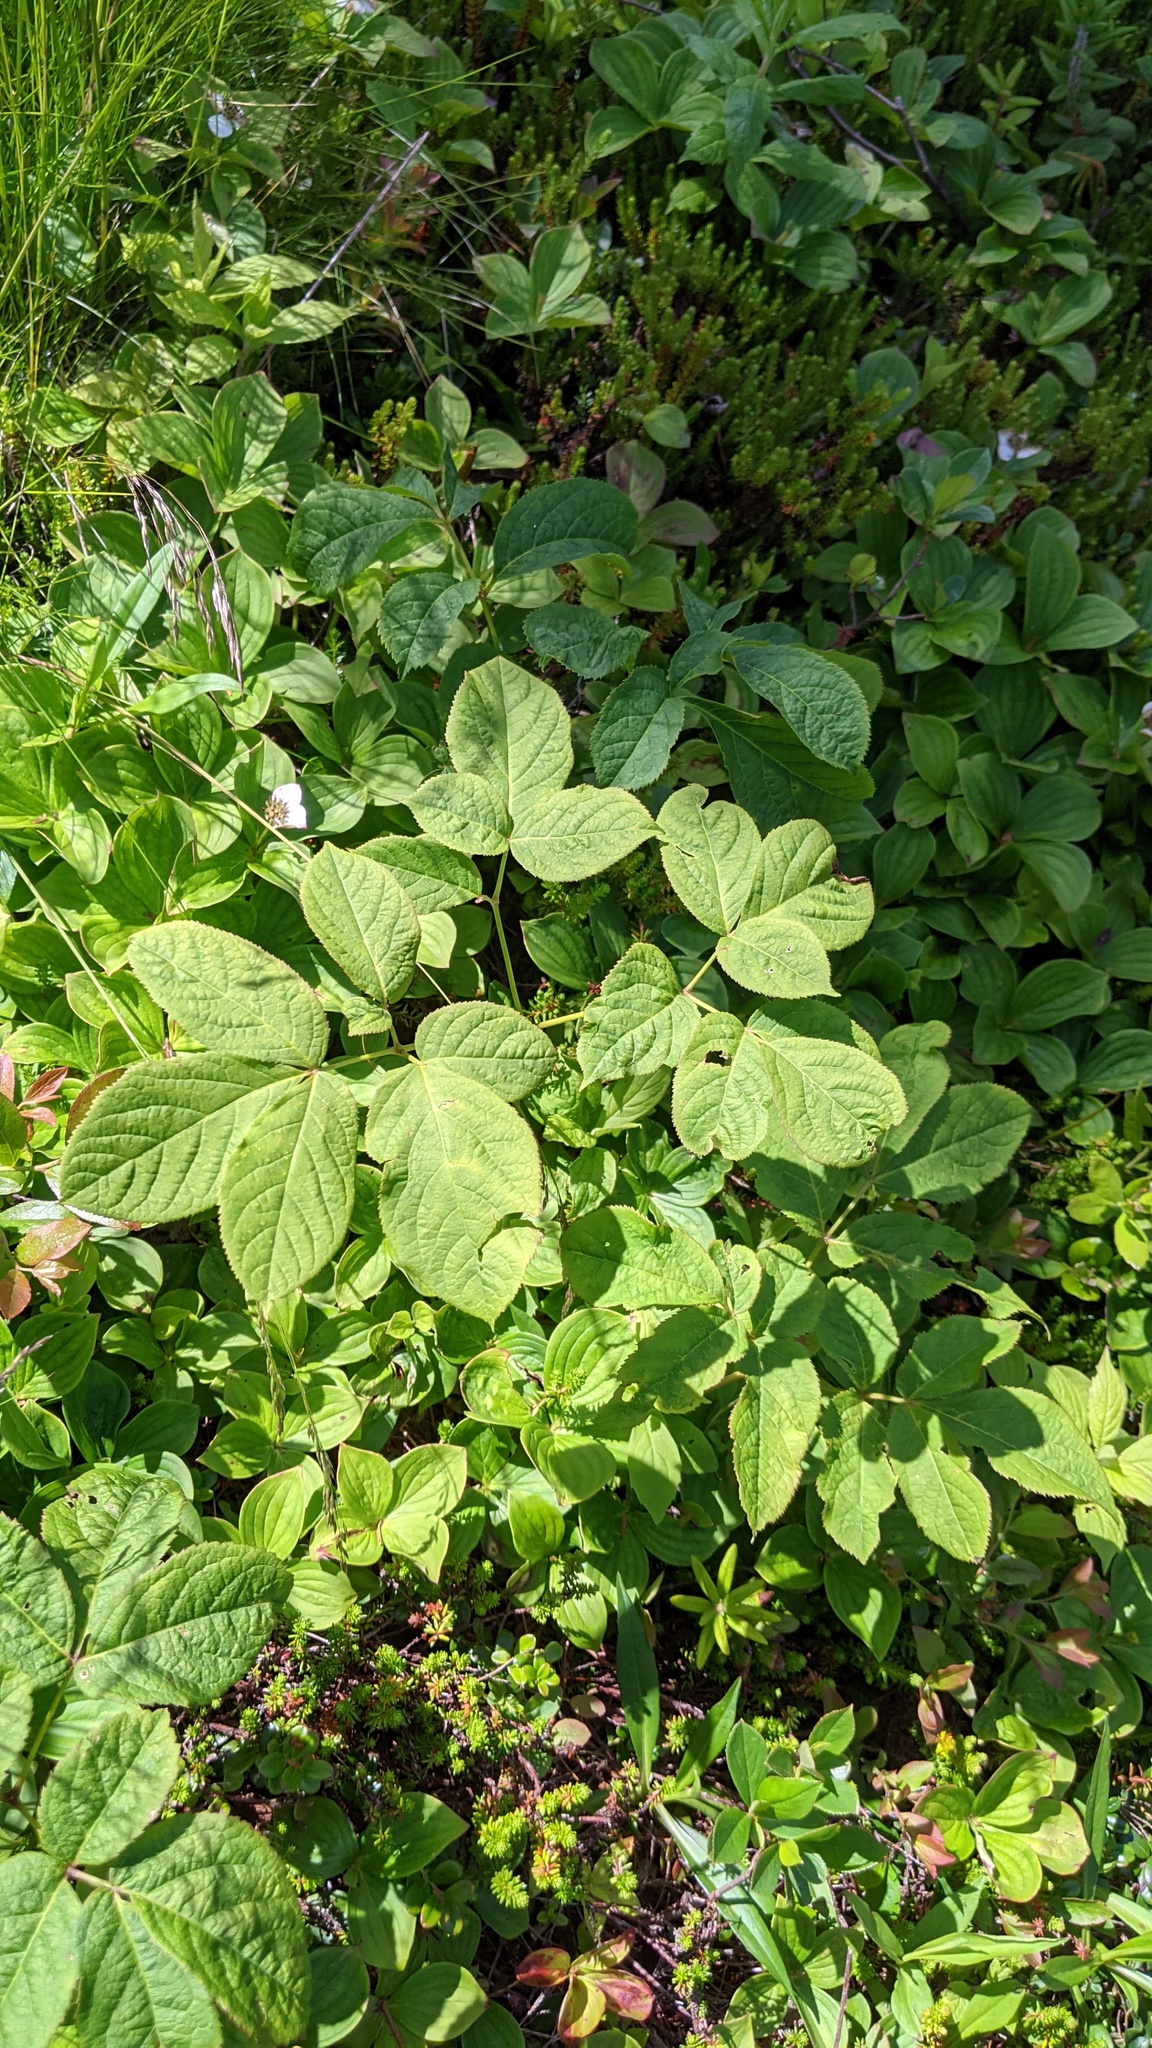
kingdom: Plantae
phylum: Tracheophyta
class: Magnoliopsida
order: Apiales
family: Araliaceae
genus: Aralia
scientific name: Aralia nudicaulis
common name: Wild sarsaparilla
